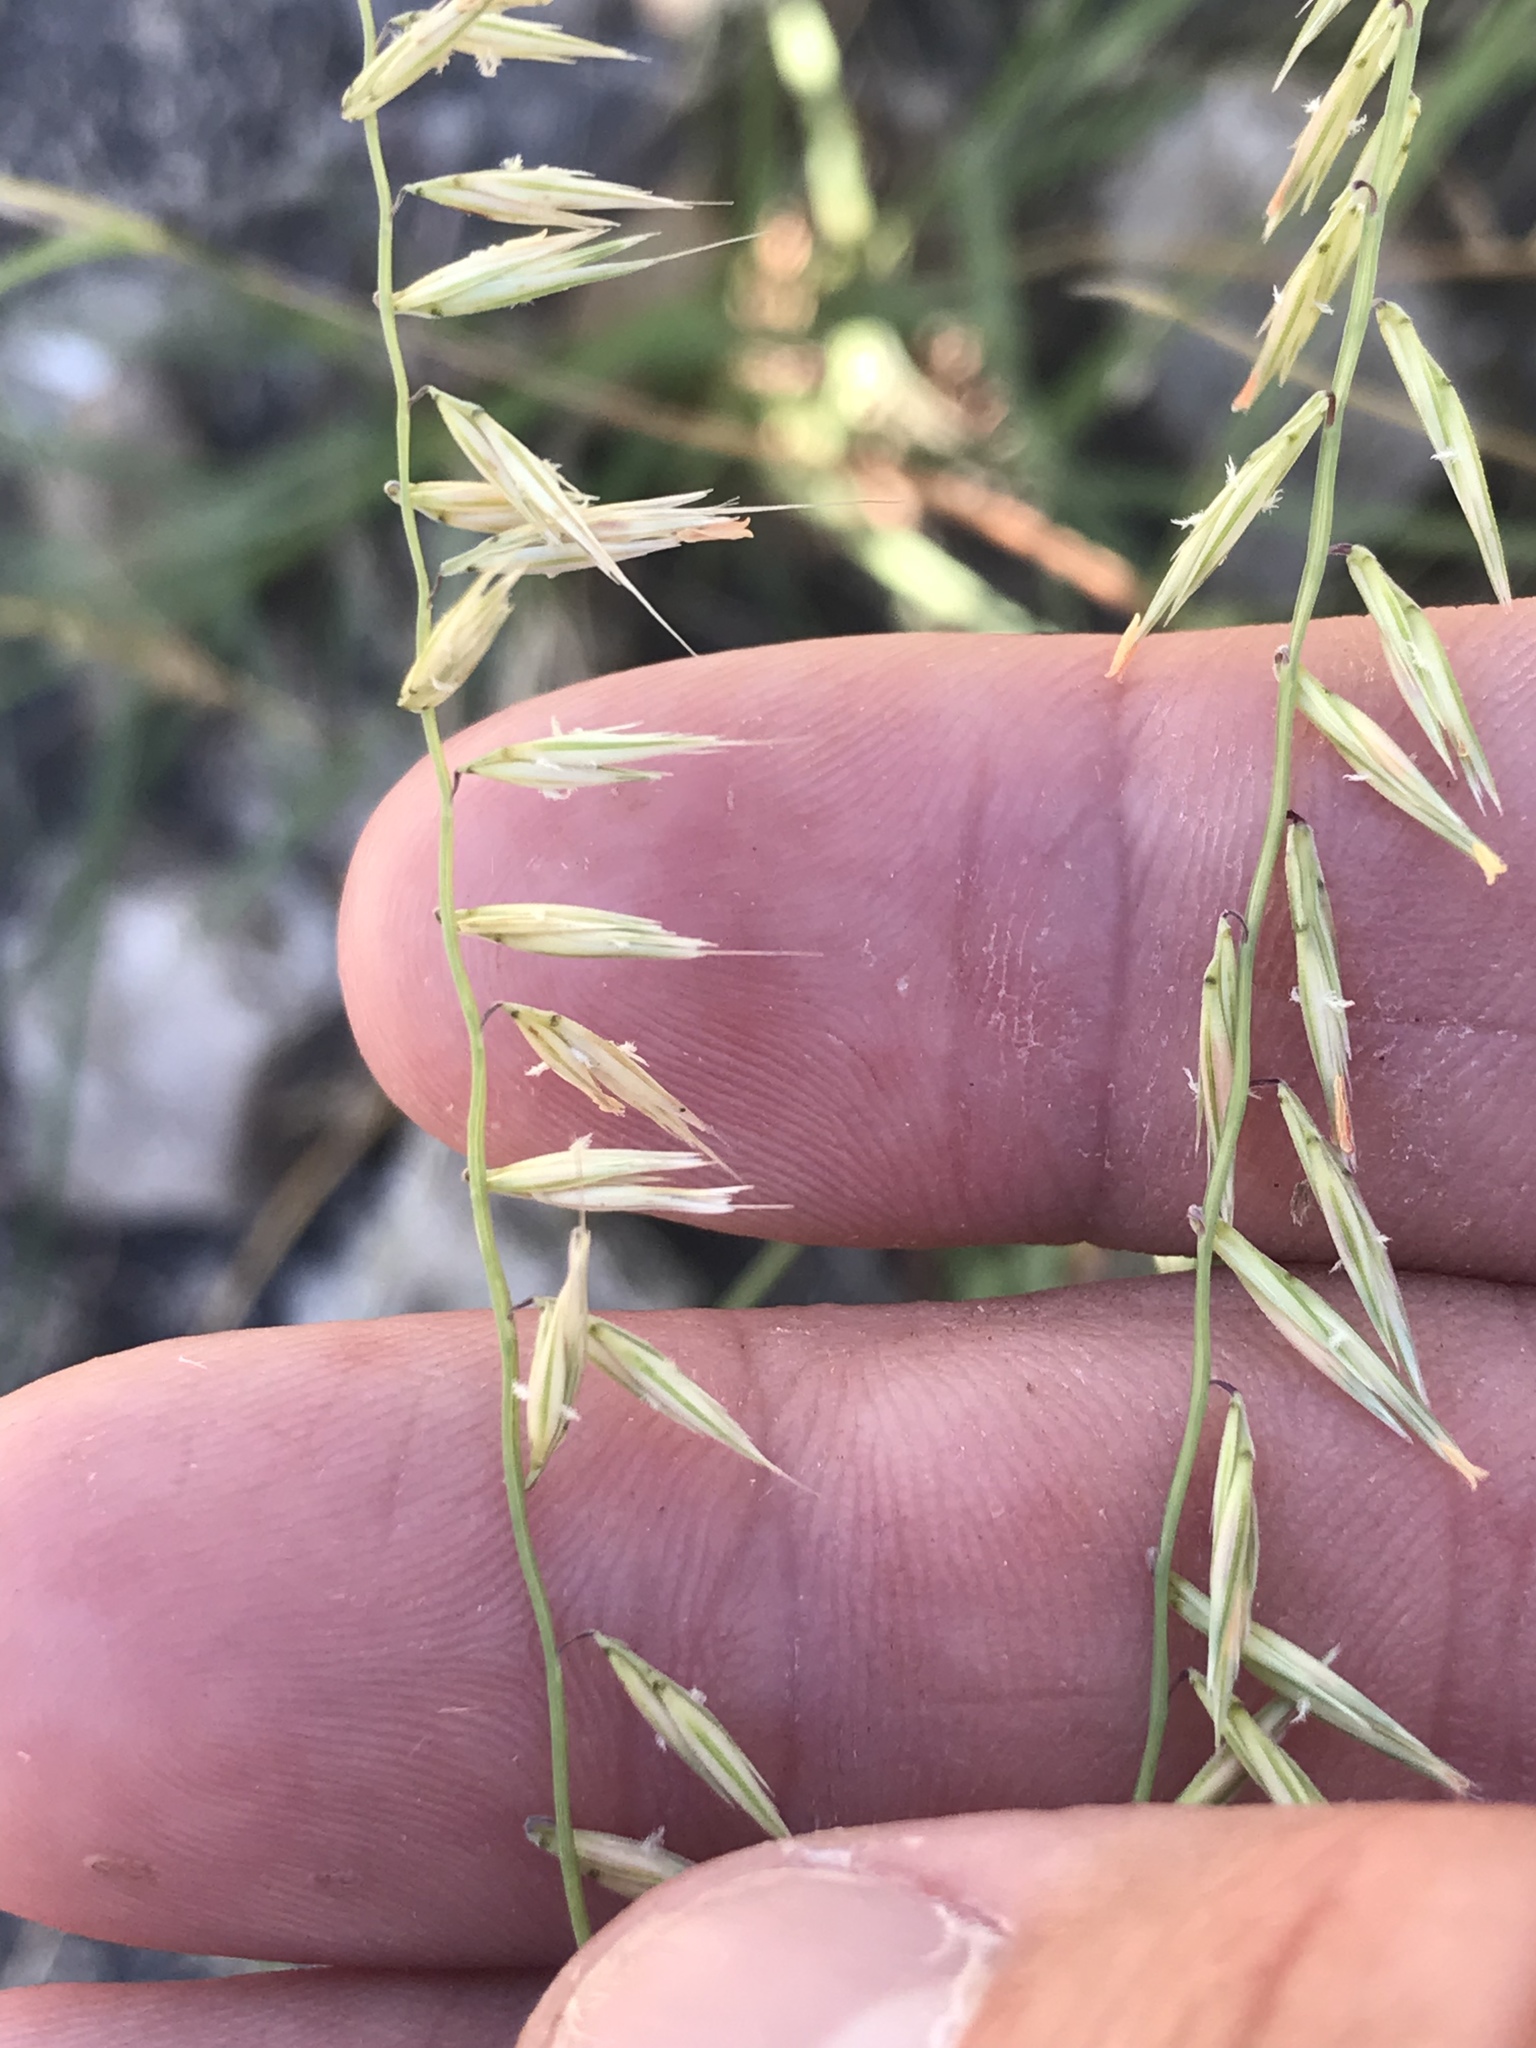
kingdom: Plantae
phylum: Tracheophyta
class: Liliopsida
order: Poales
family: Poaceae
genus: Bouteloua
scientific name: Bouteloua curtipendula
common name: Side-oats grama
